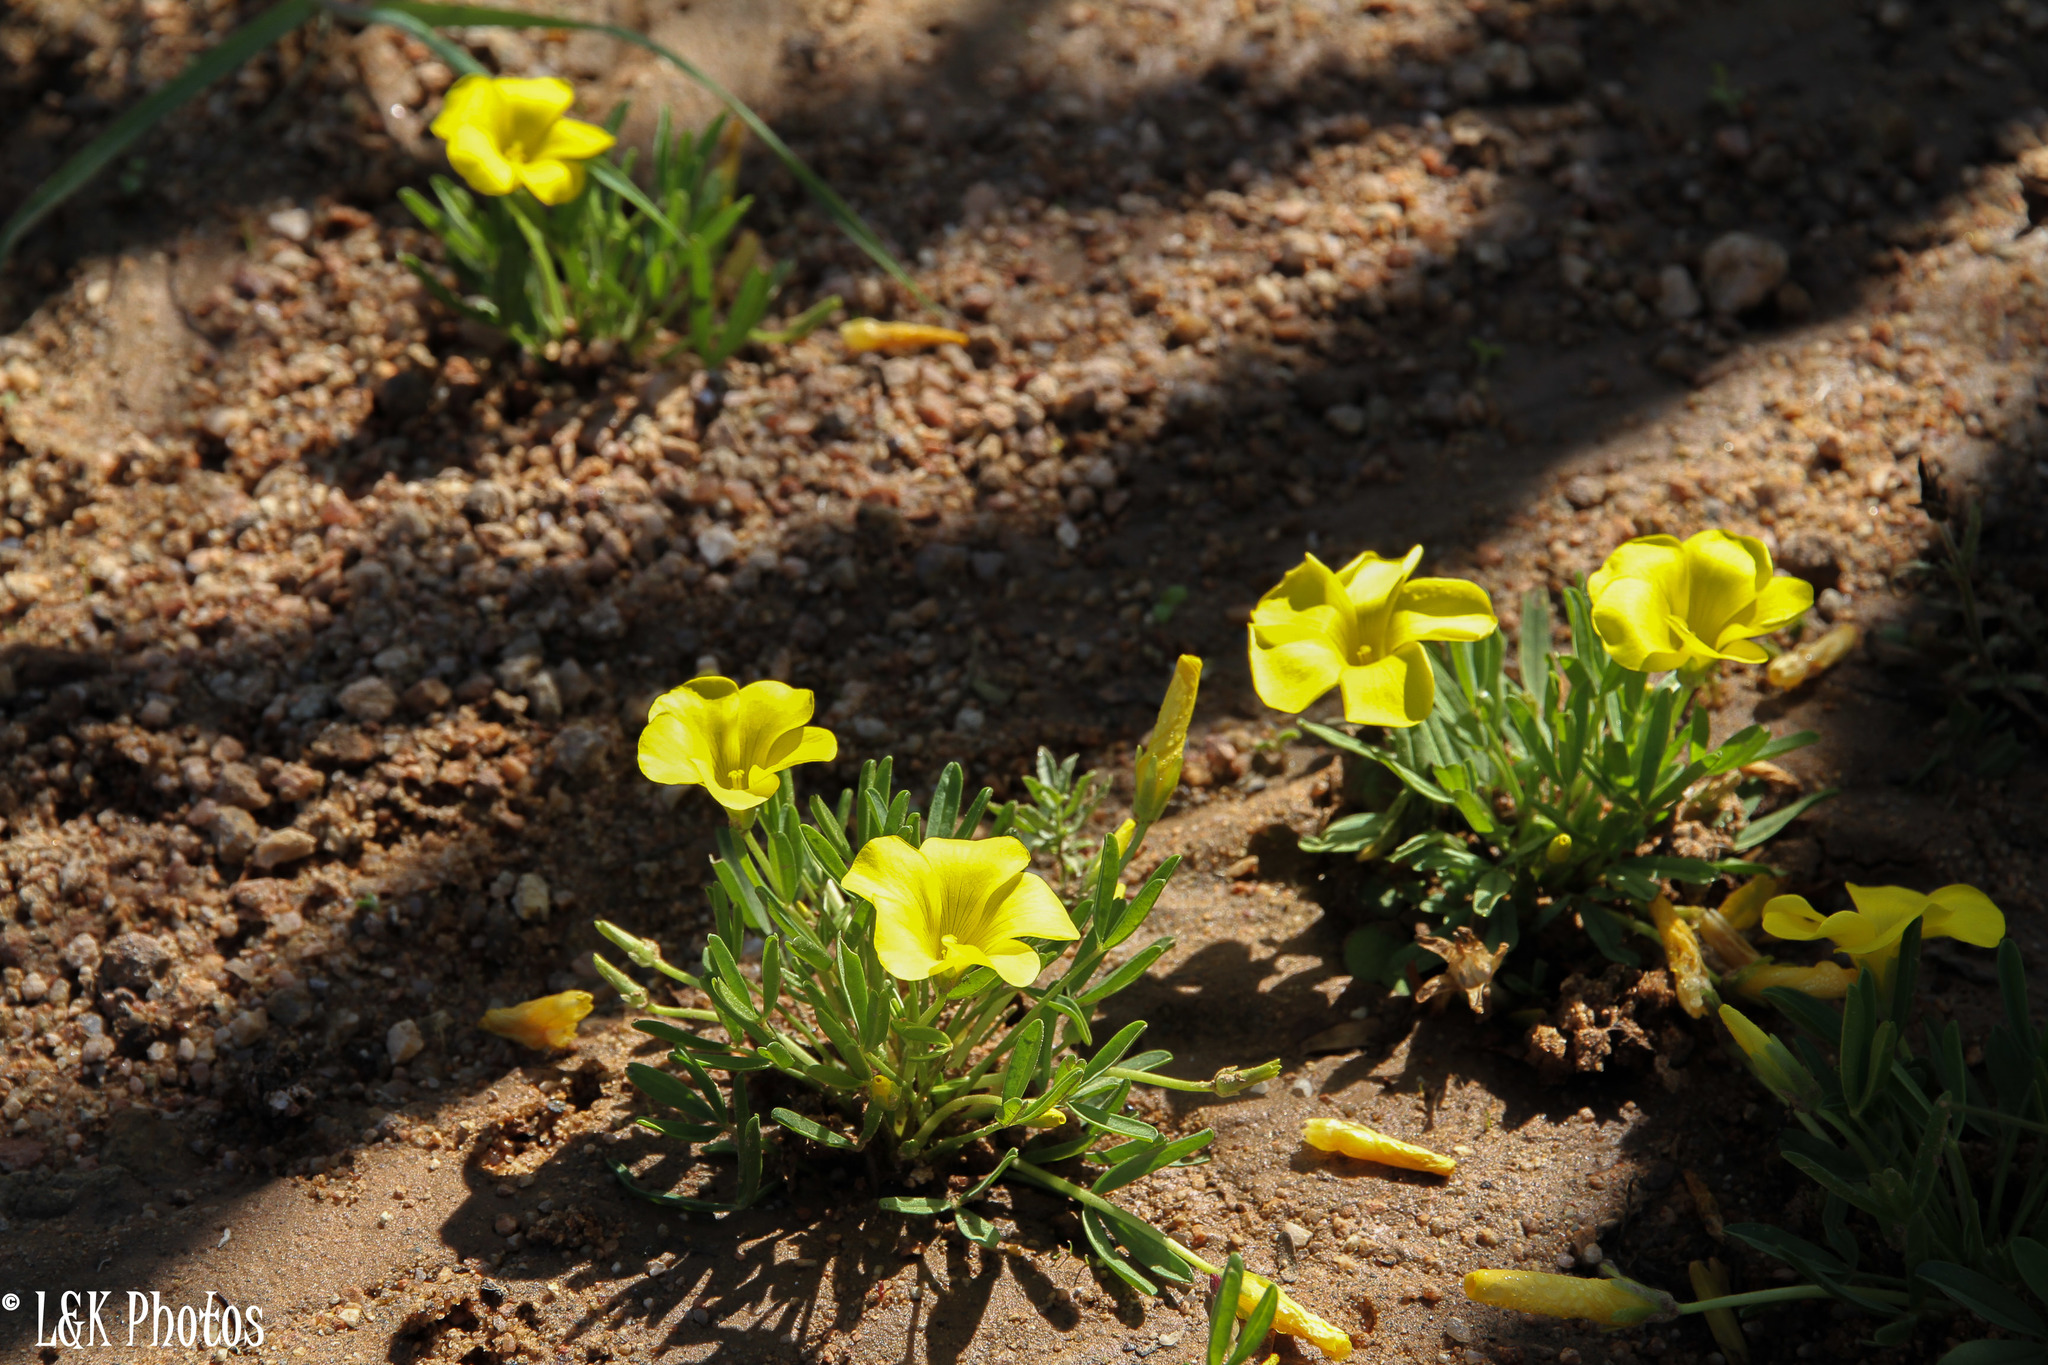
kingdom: Plantae
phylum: Tracheophyta
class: Magnoliopsida
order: Oxalidales
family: Oxalidaceae
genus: Oxalis
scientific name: Oxalis namaquana
